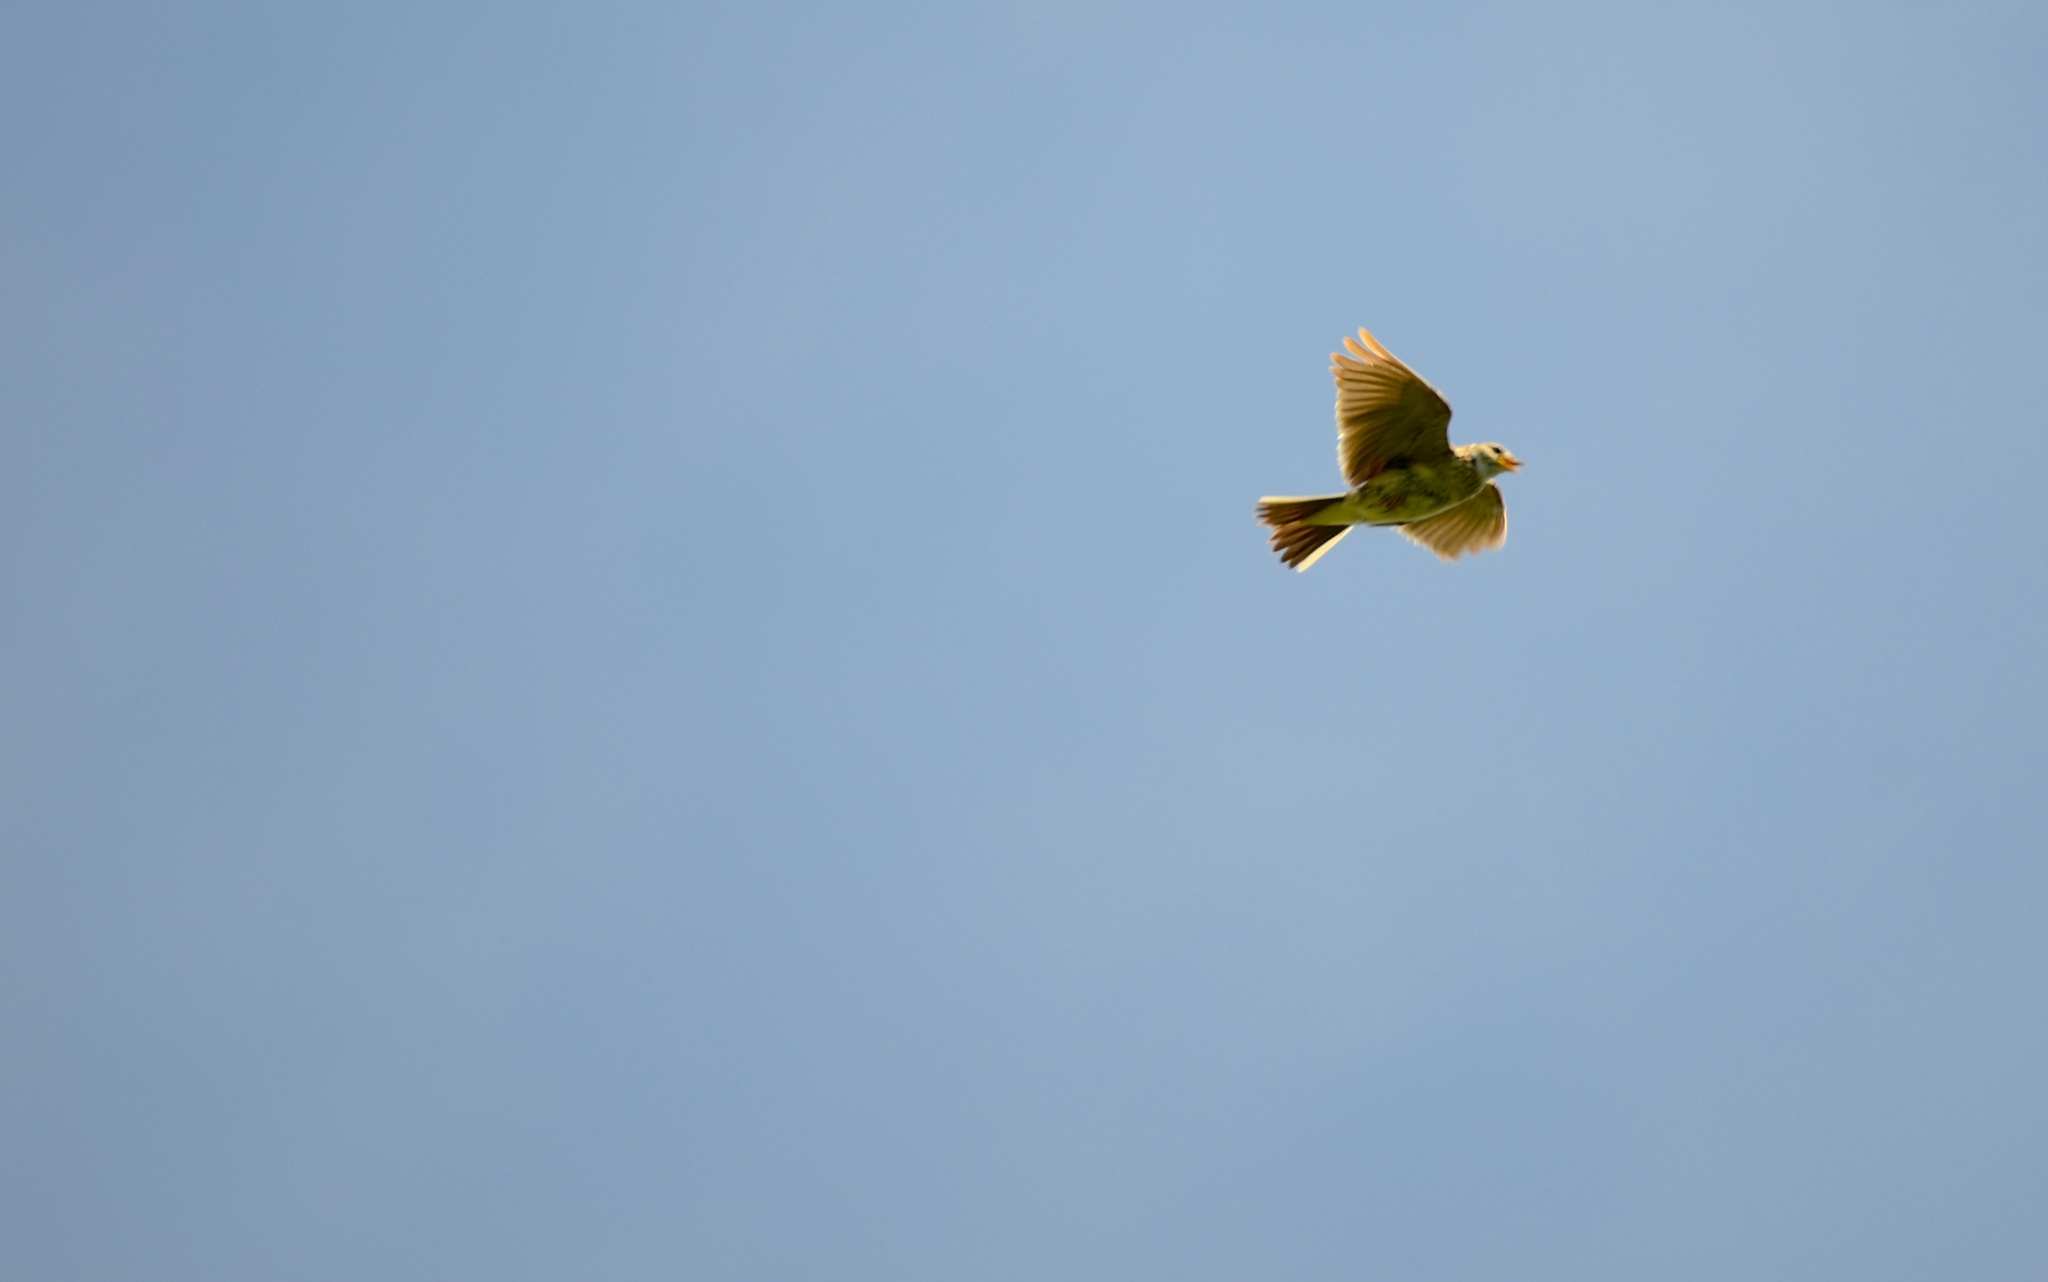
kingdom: Animalia
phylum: Chordata
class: Aves
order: Passeriformes
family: Alaudidae
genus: Alauda
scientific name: Alauda arvensis
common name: Eurasian skylark
